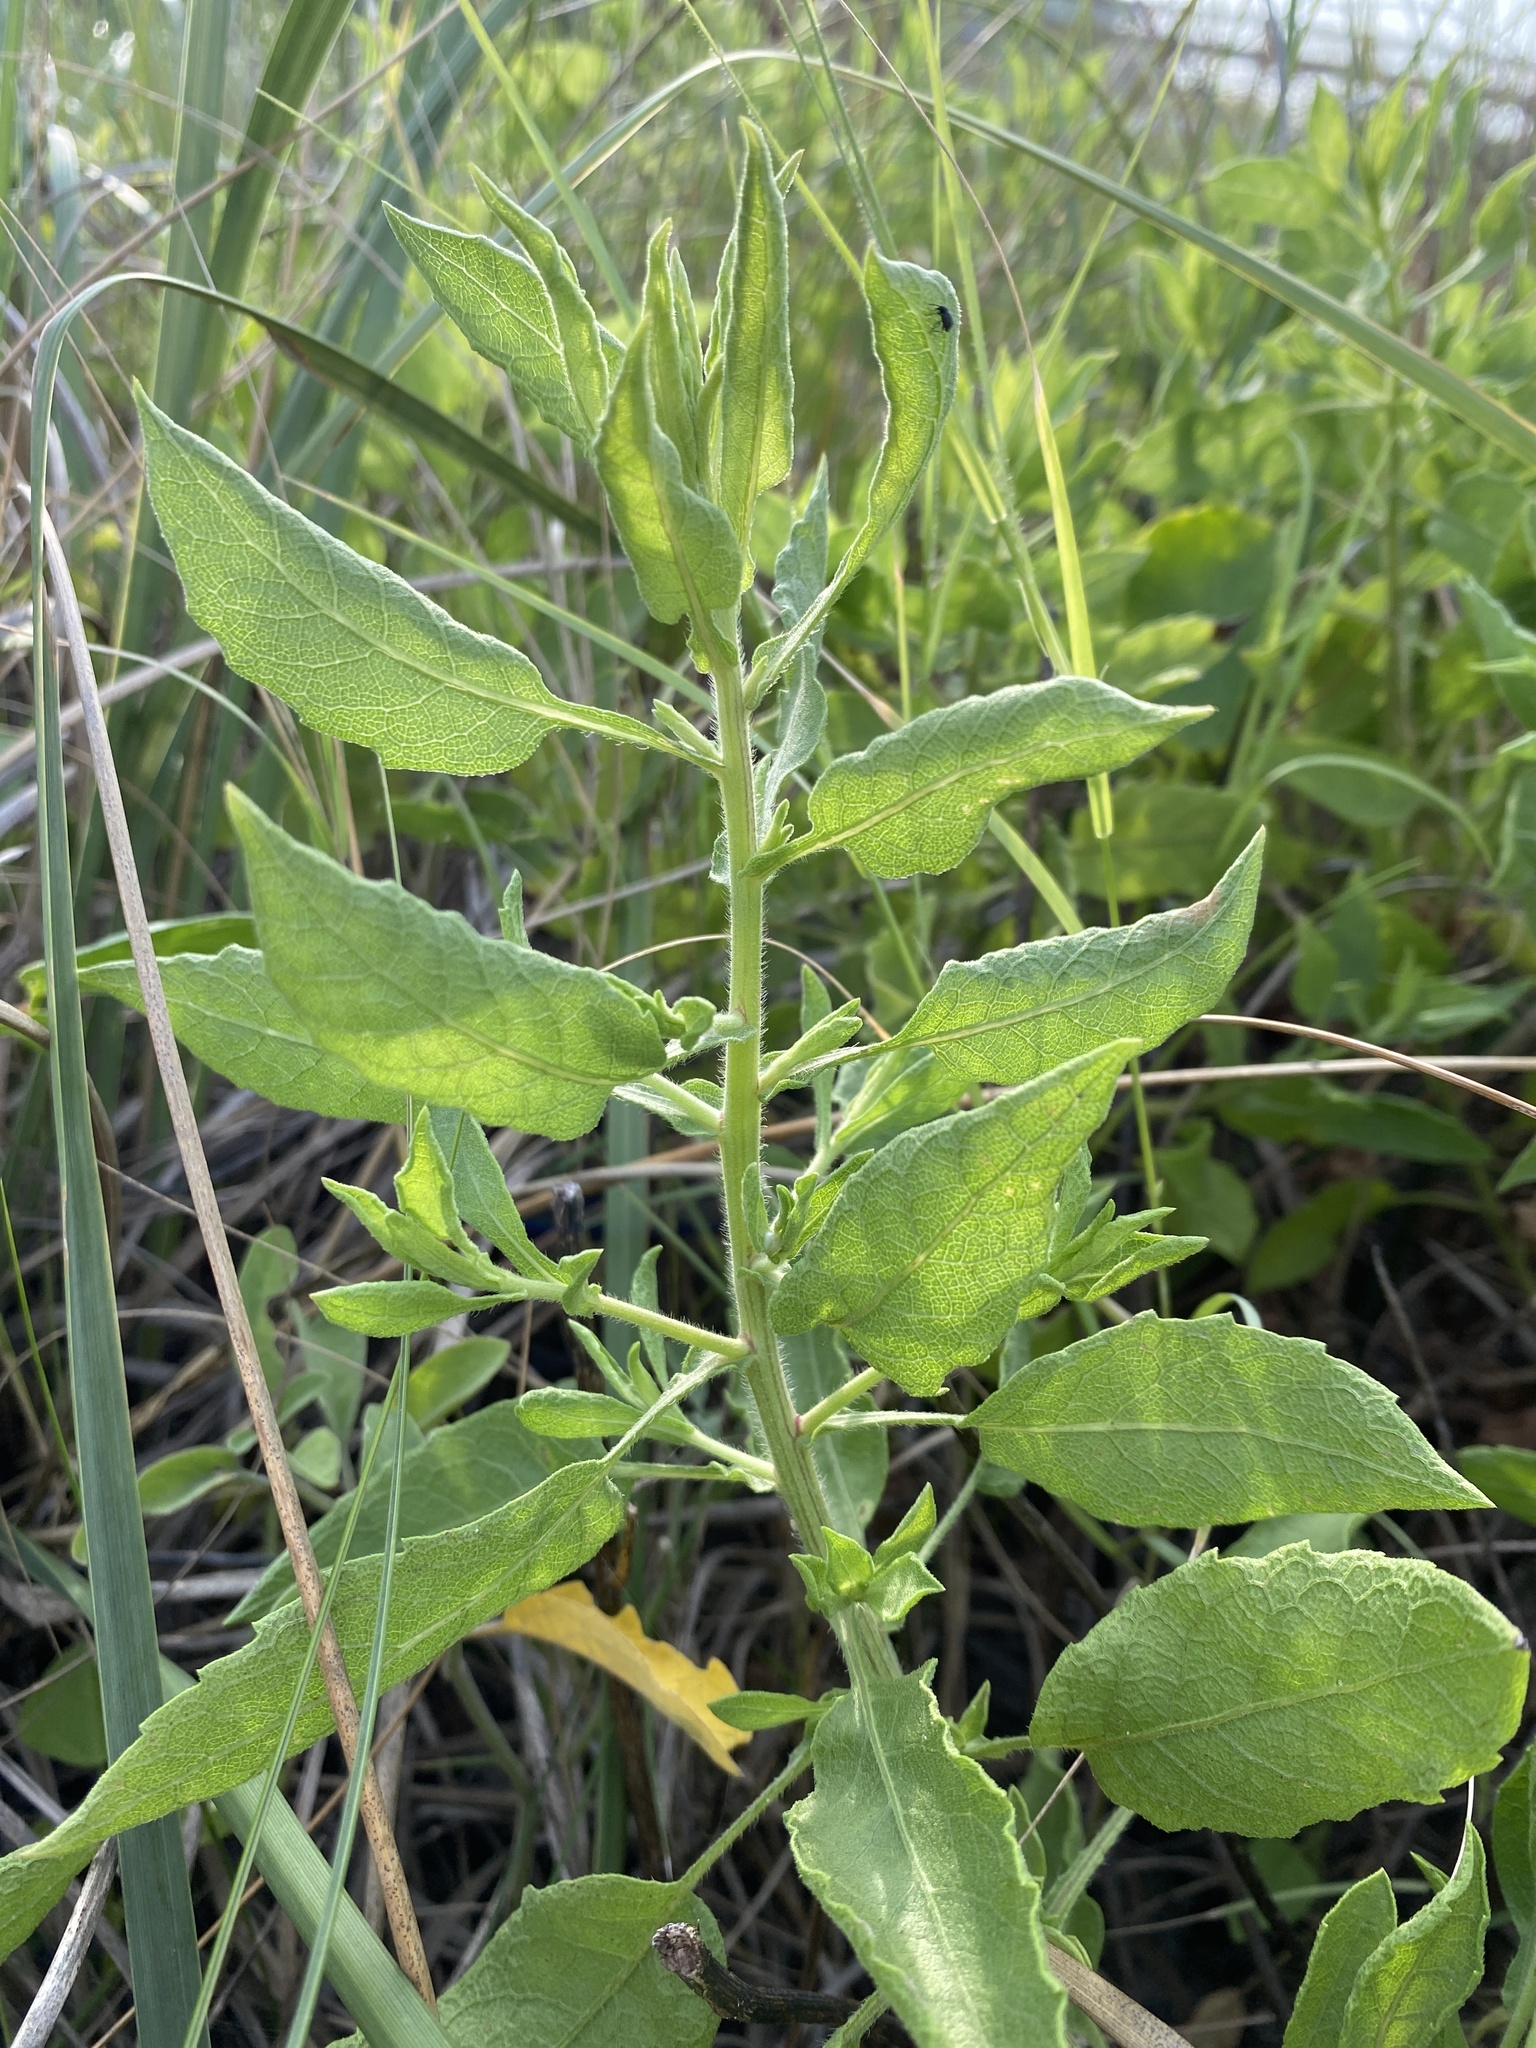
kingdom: Plantae
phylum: Tracheophyta
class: Magnoliopsida
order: Asterales
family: Asteraceae
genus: Heterotheca
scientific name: Heterotheca subaxillaris
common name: Camphorweed
